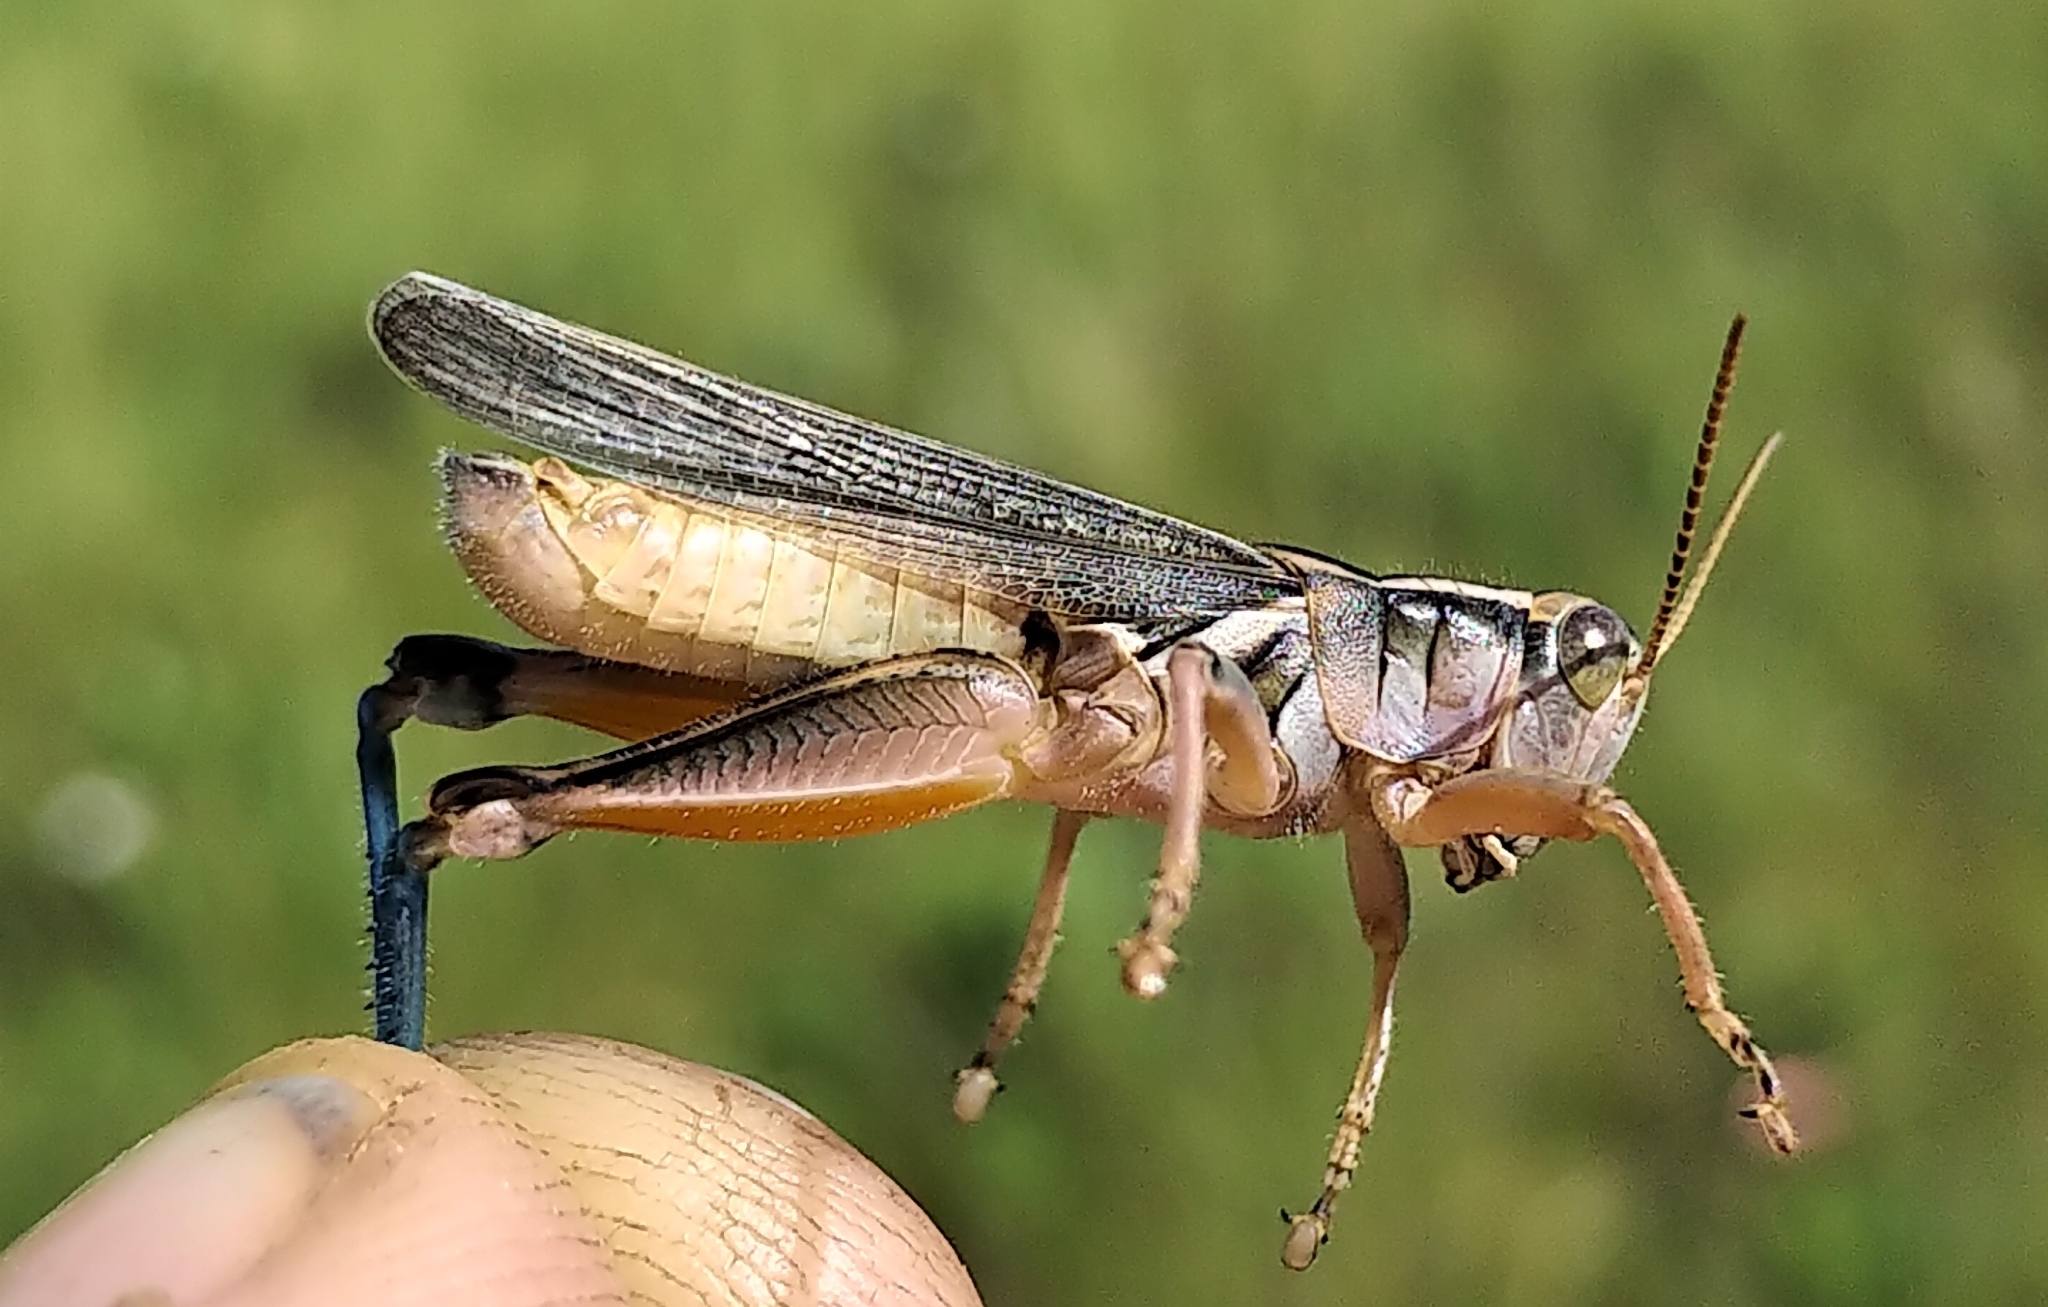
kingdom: Animalia
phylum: Arthropoda
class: Insecta
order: Orthoptera
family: Acrididae
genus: Melanoplus
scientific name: Melanoplus packardii
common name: Packard's grasshopper
